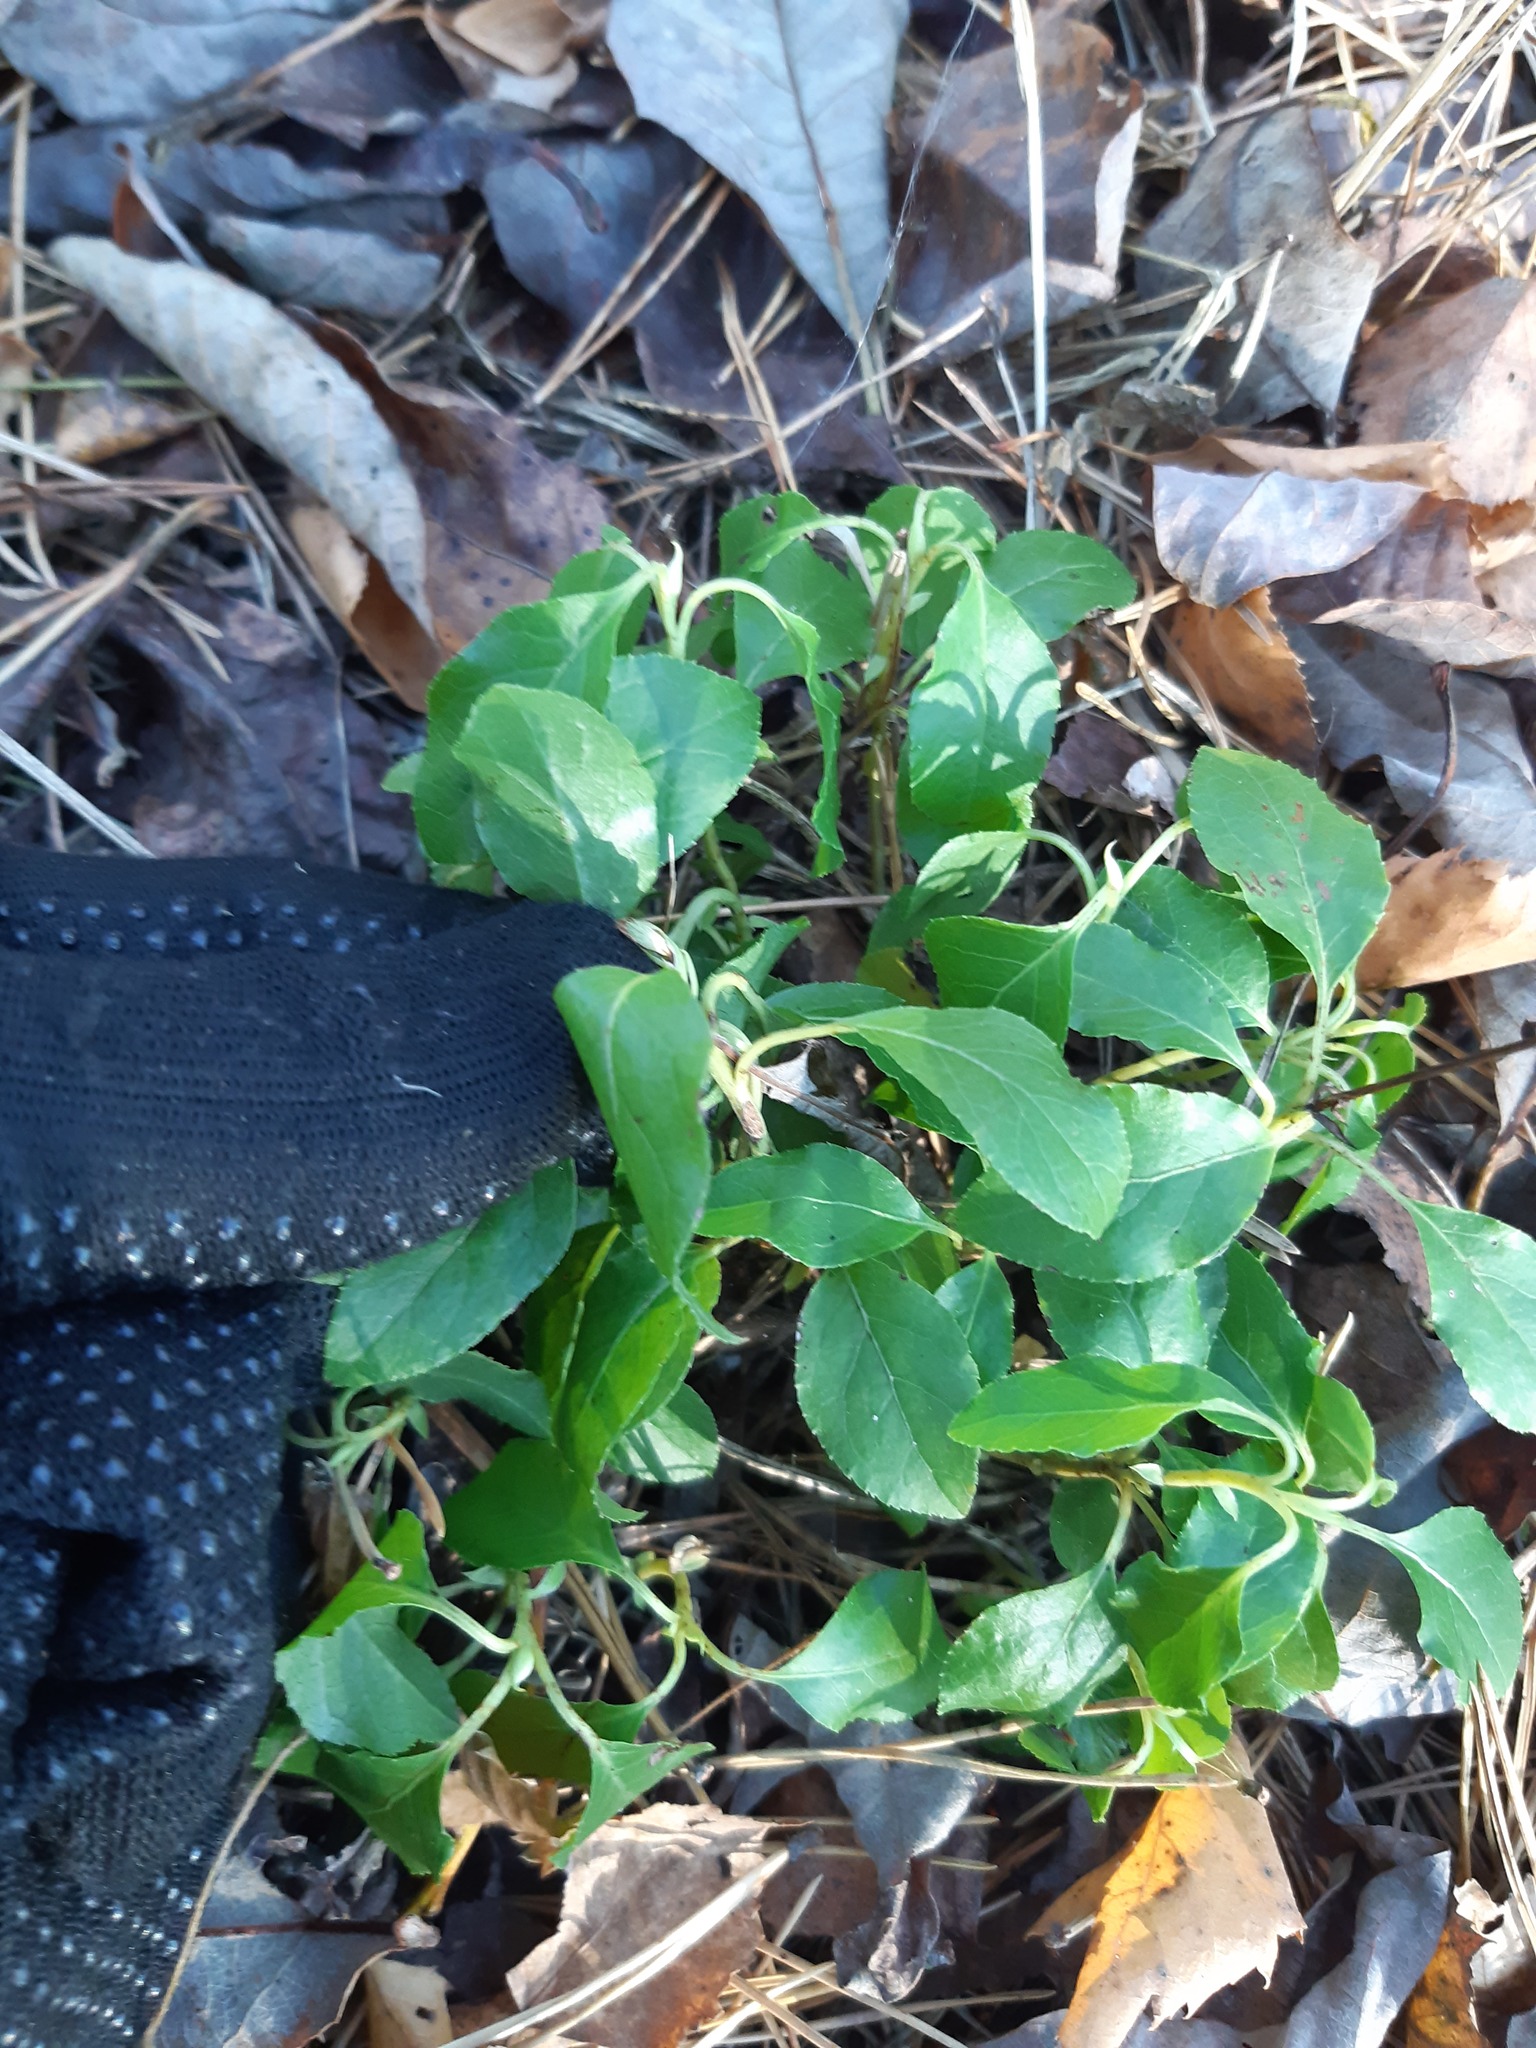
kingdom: Plantae
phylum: Tracheophyta
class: Magnoliopsida
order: Ericales
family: Ericaceae
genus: Orthilia
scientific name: Orthilia secunda
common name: One-sided orthilia
